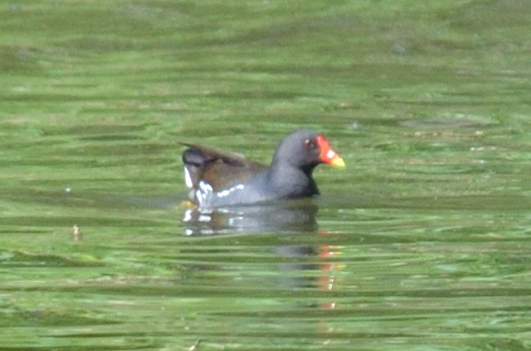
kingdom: Animalia
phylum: Chordata
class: Aves
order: Gruiformes
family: Rallidae
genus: Gallinula
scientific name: Gallinula chloropus
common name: Common moorhen
